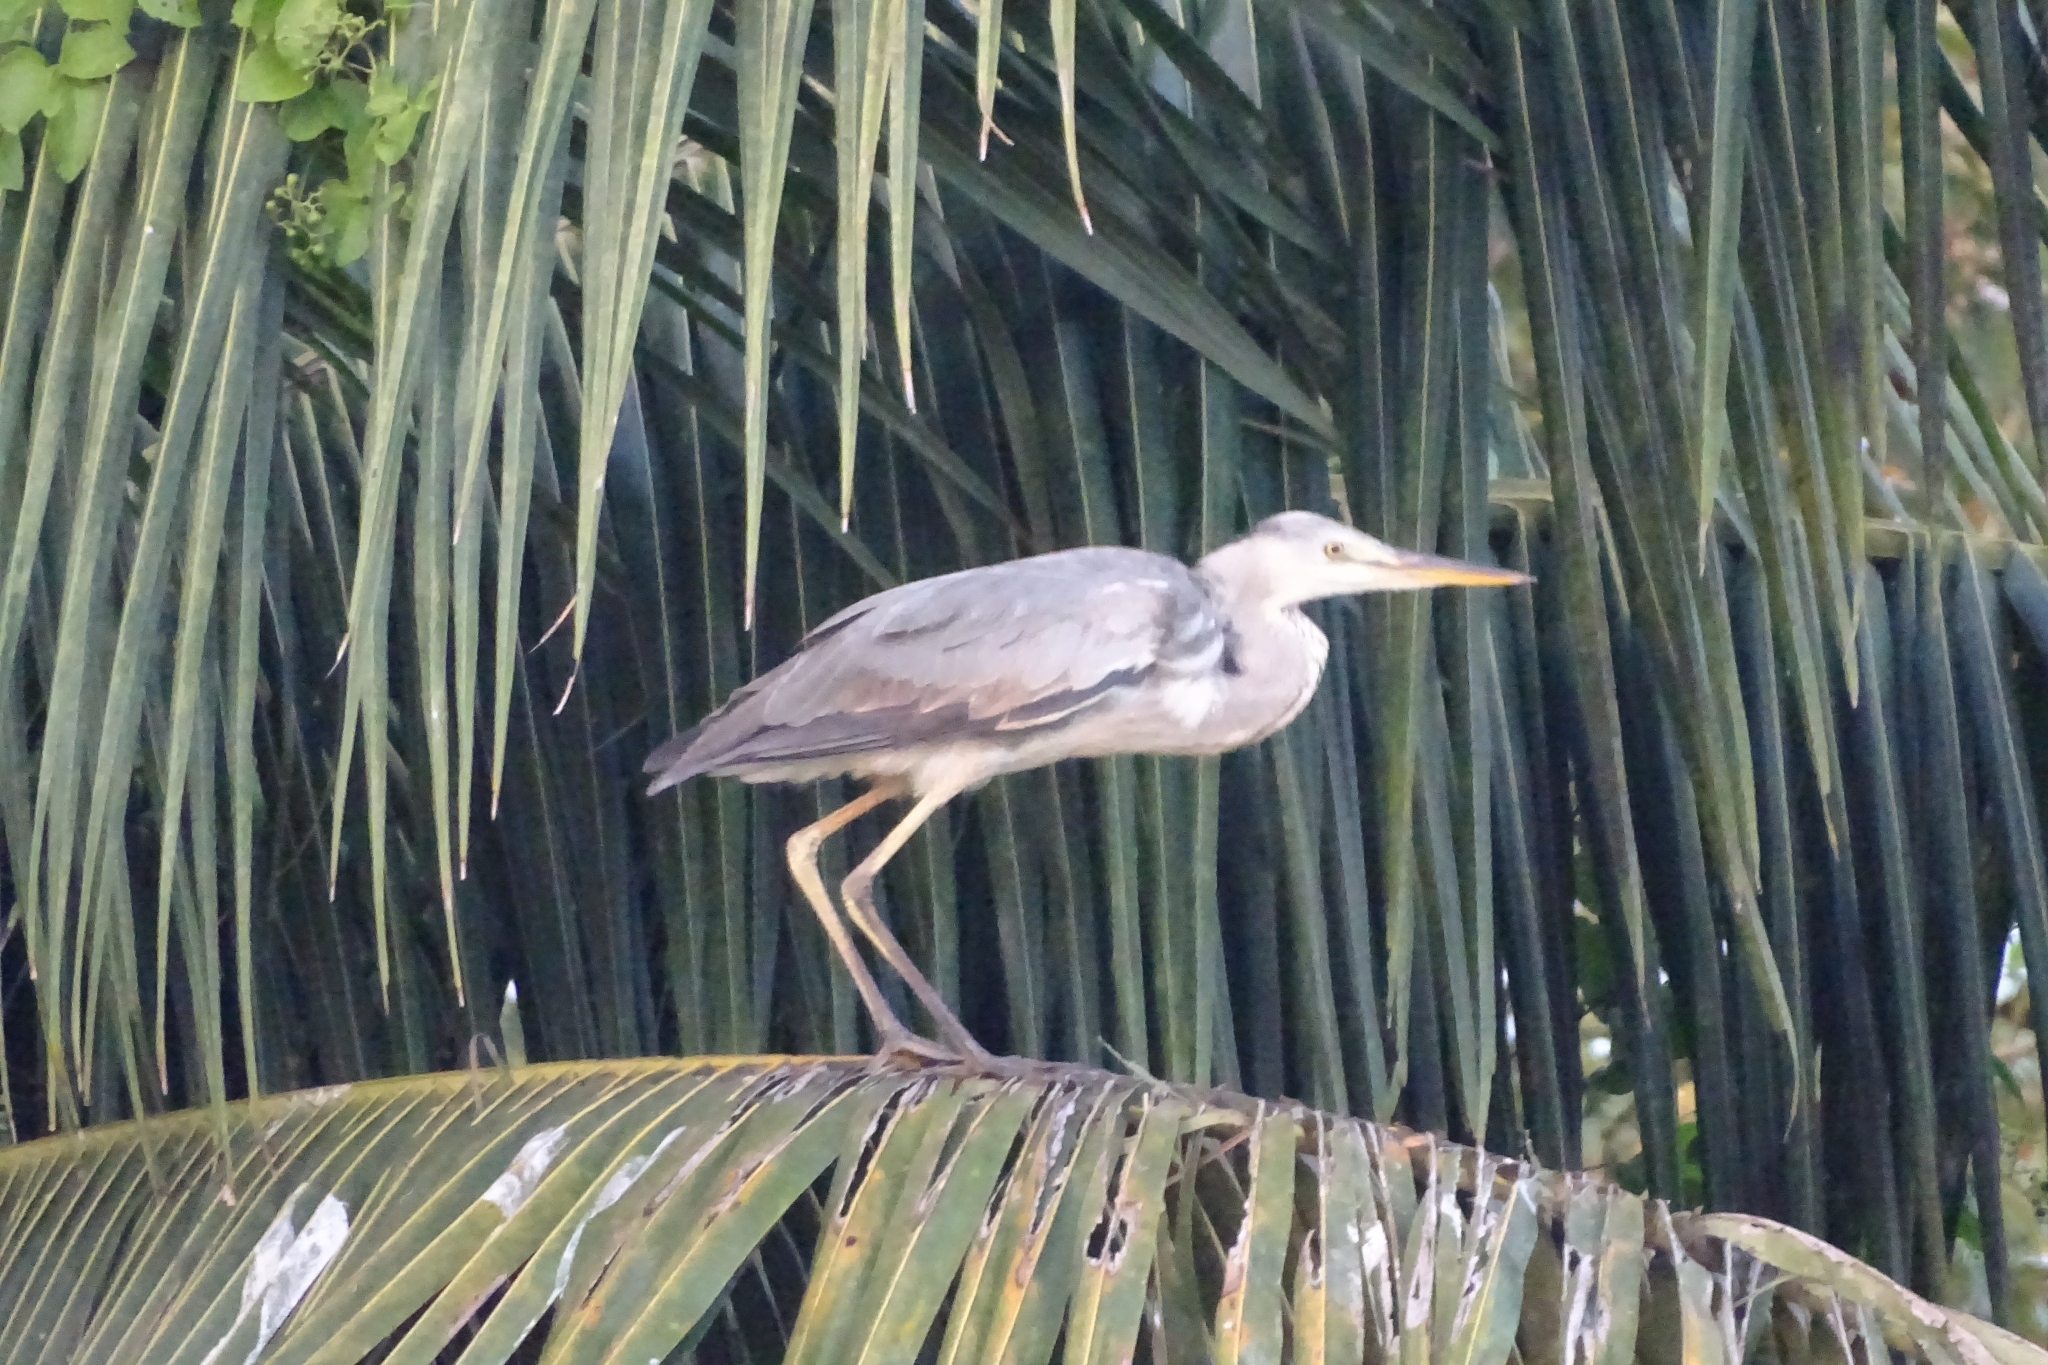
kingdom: Animalia
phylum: Chordata
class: Aves
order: Pelecaniformes
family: Ardeidae
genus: Ardea
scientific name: Ardea cinerea
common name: Grey heron
